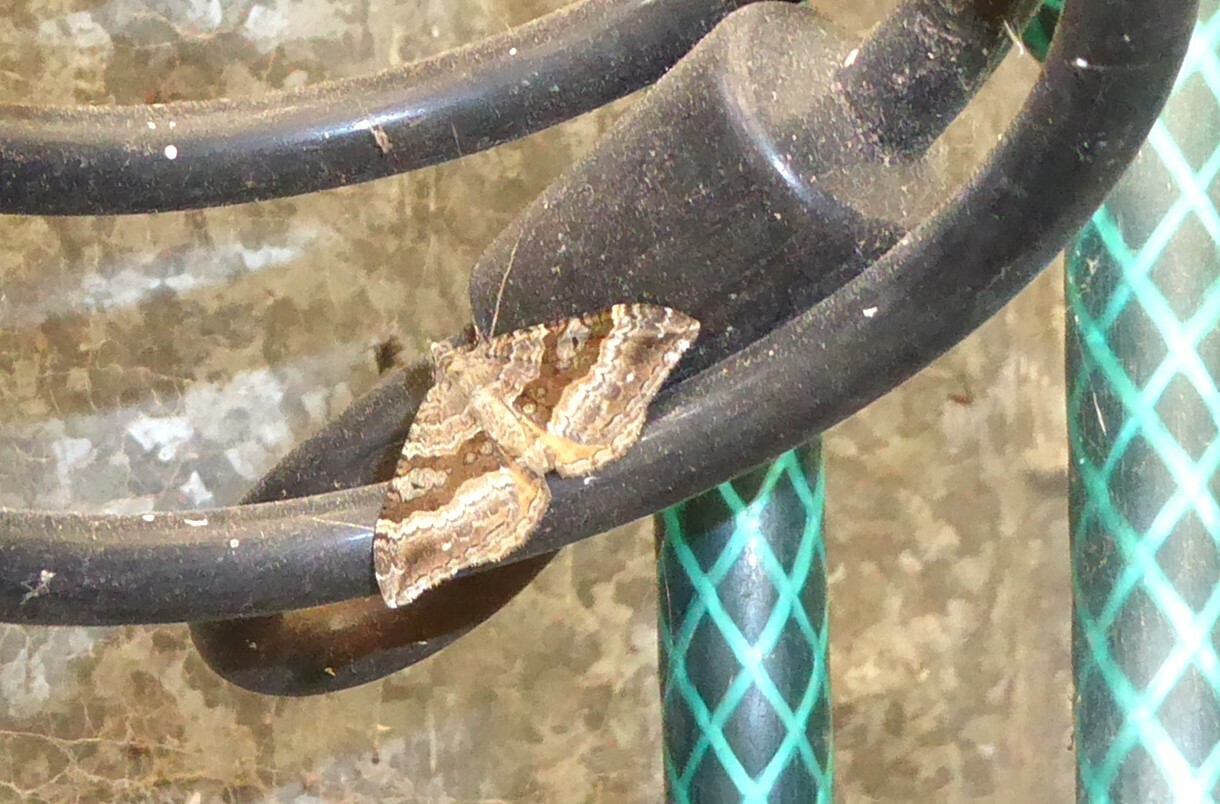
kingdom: Animalia
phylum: Arthropoda
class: Insecta
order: Lepidoptera
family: Geometridae
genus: Hydriomena
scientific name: Hydriomena deltoidata
